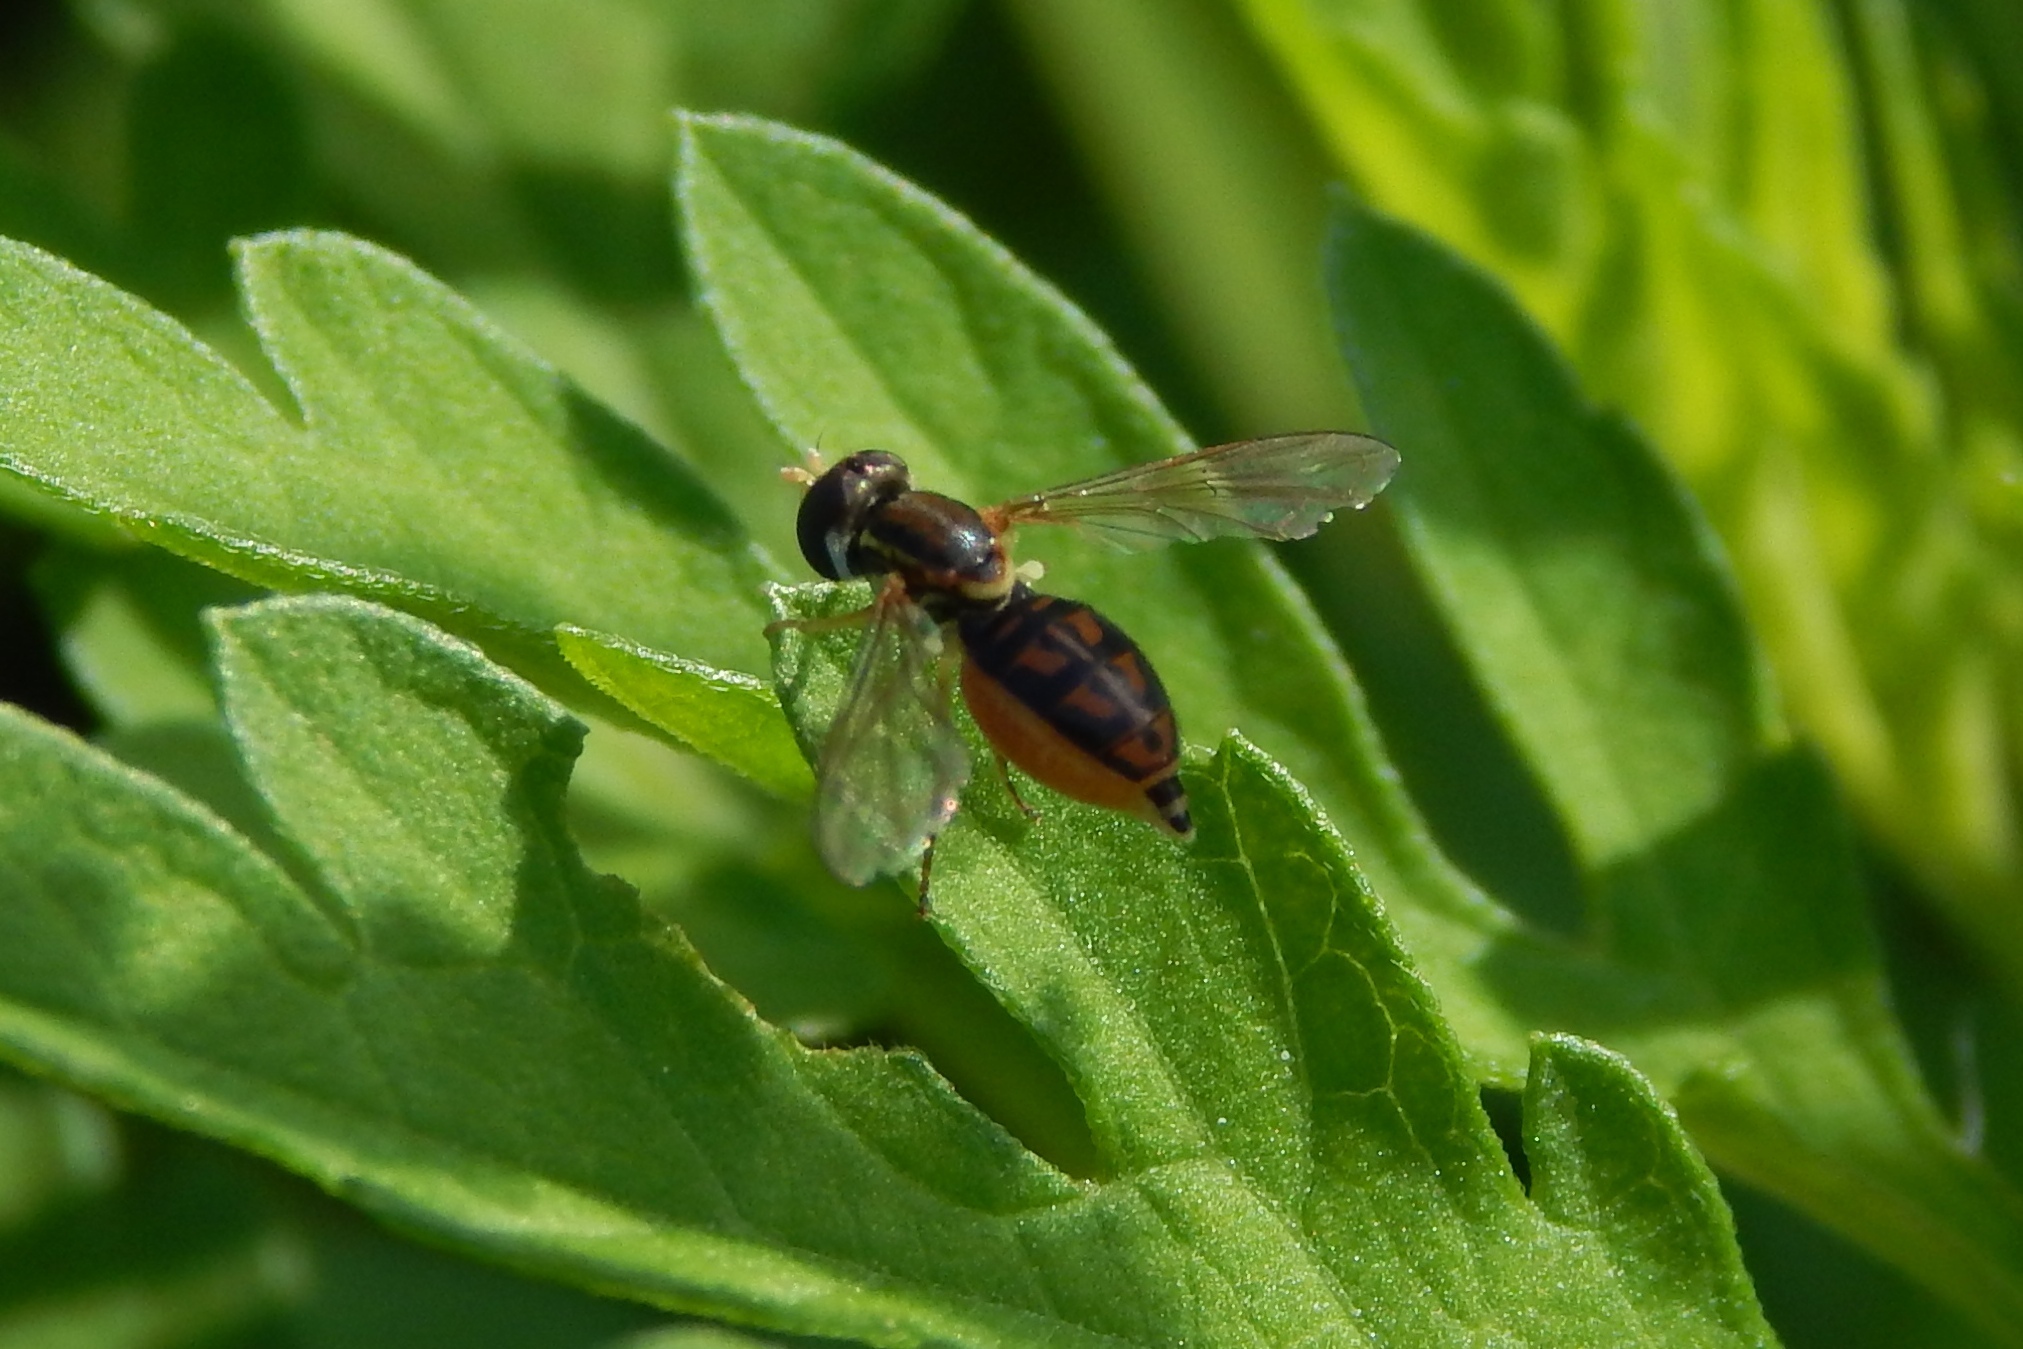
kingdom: Animalia
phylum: Arthropoda
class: Insecta
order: Diptera
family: Syrphidae
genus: Toxomerus
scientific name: Toxomerus marginatus
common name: Syrphid fly
